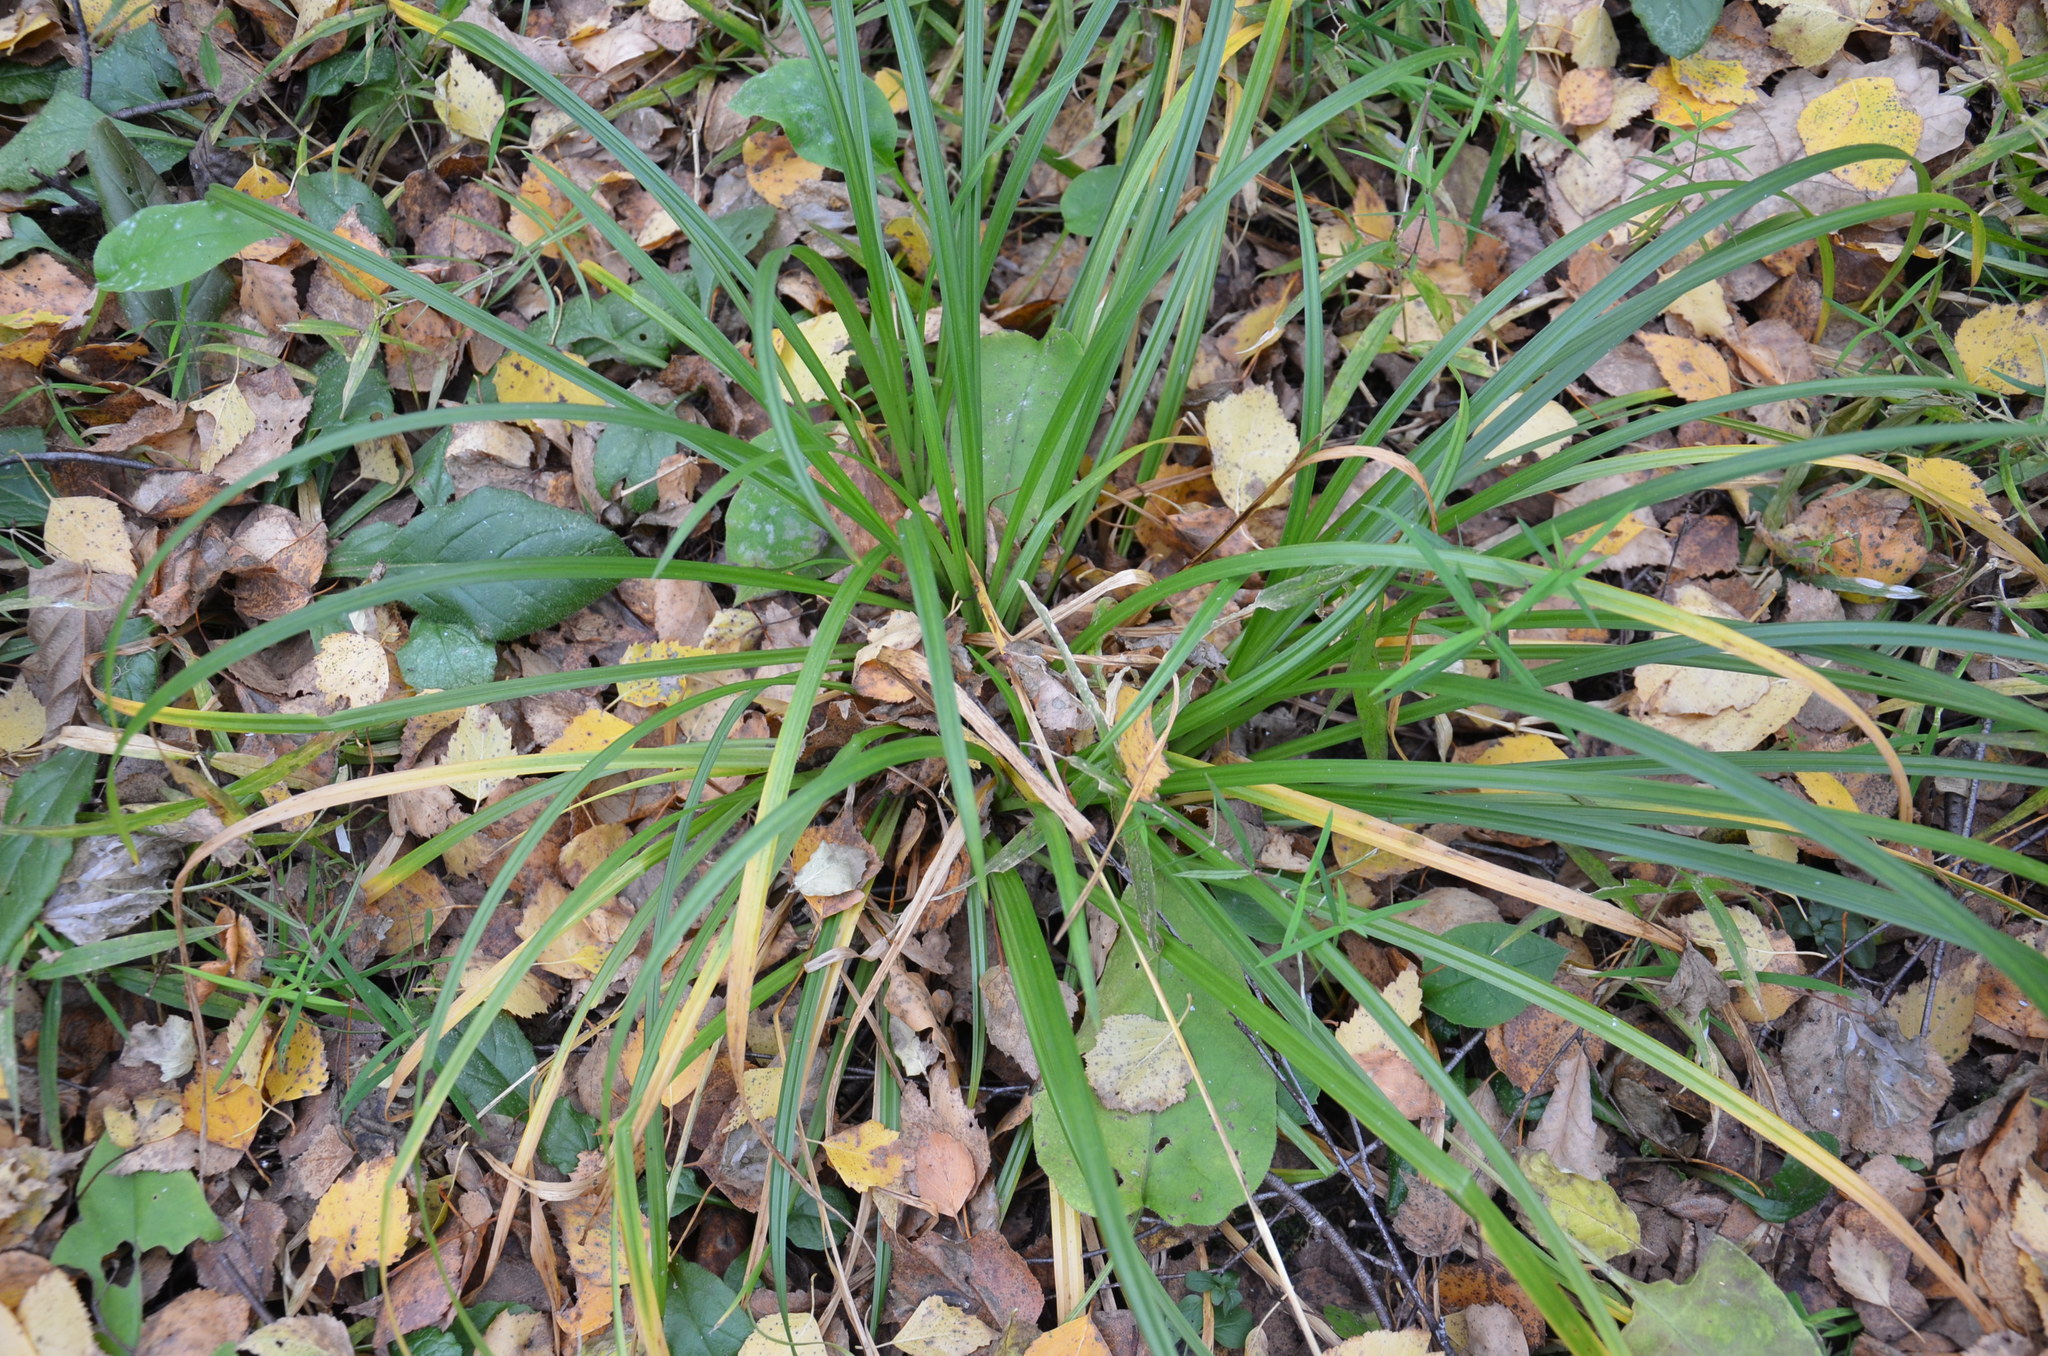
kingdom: Plantae
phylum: Tracheophyta
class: Liliopsida
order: Poales
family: Cyperaceae
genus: Carex
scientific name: Carex sylvatica
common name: Wood-sedge
